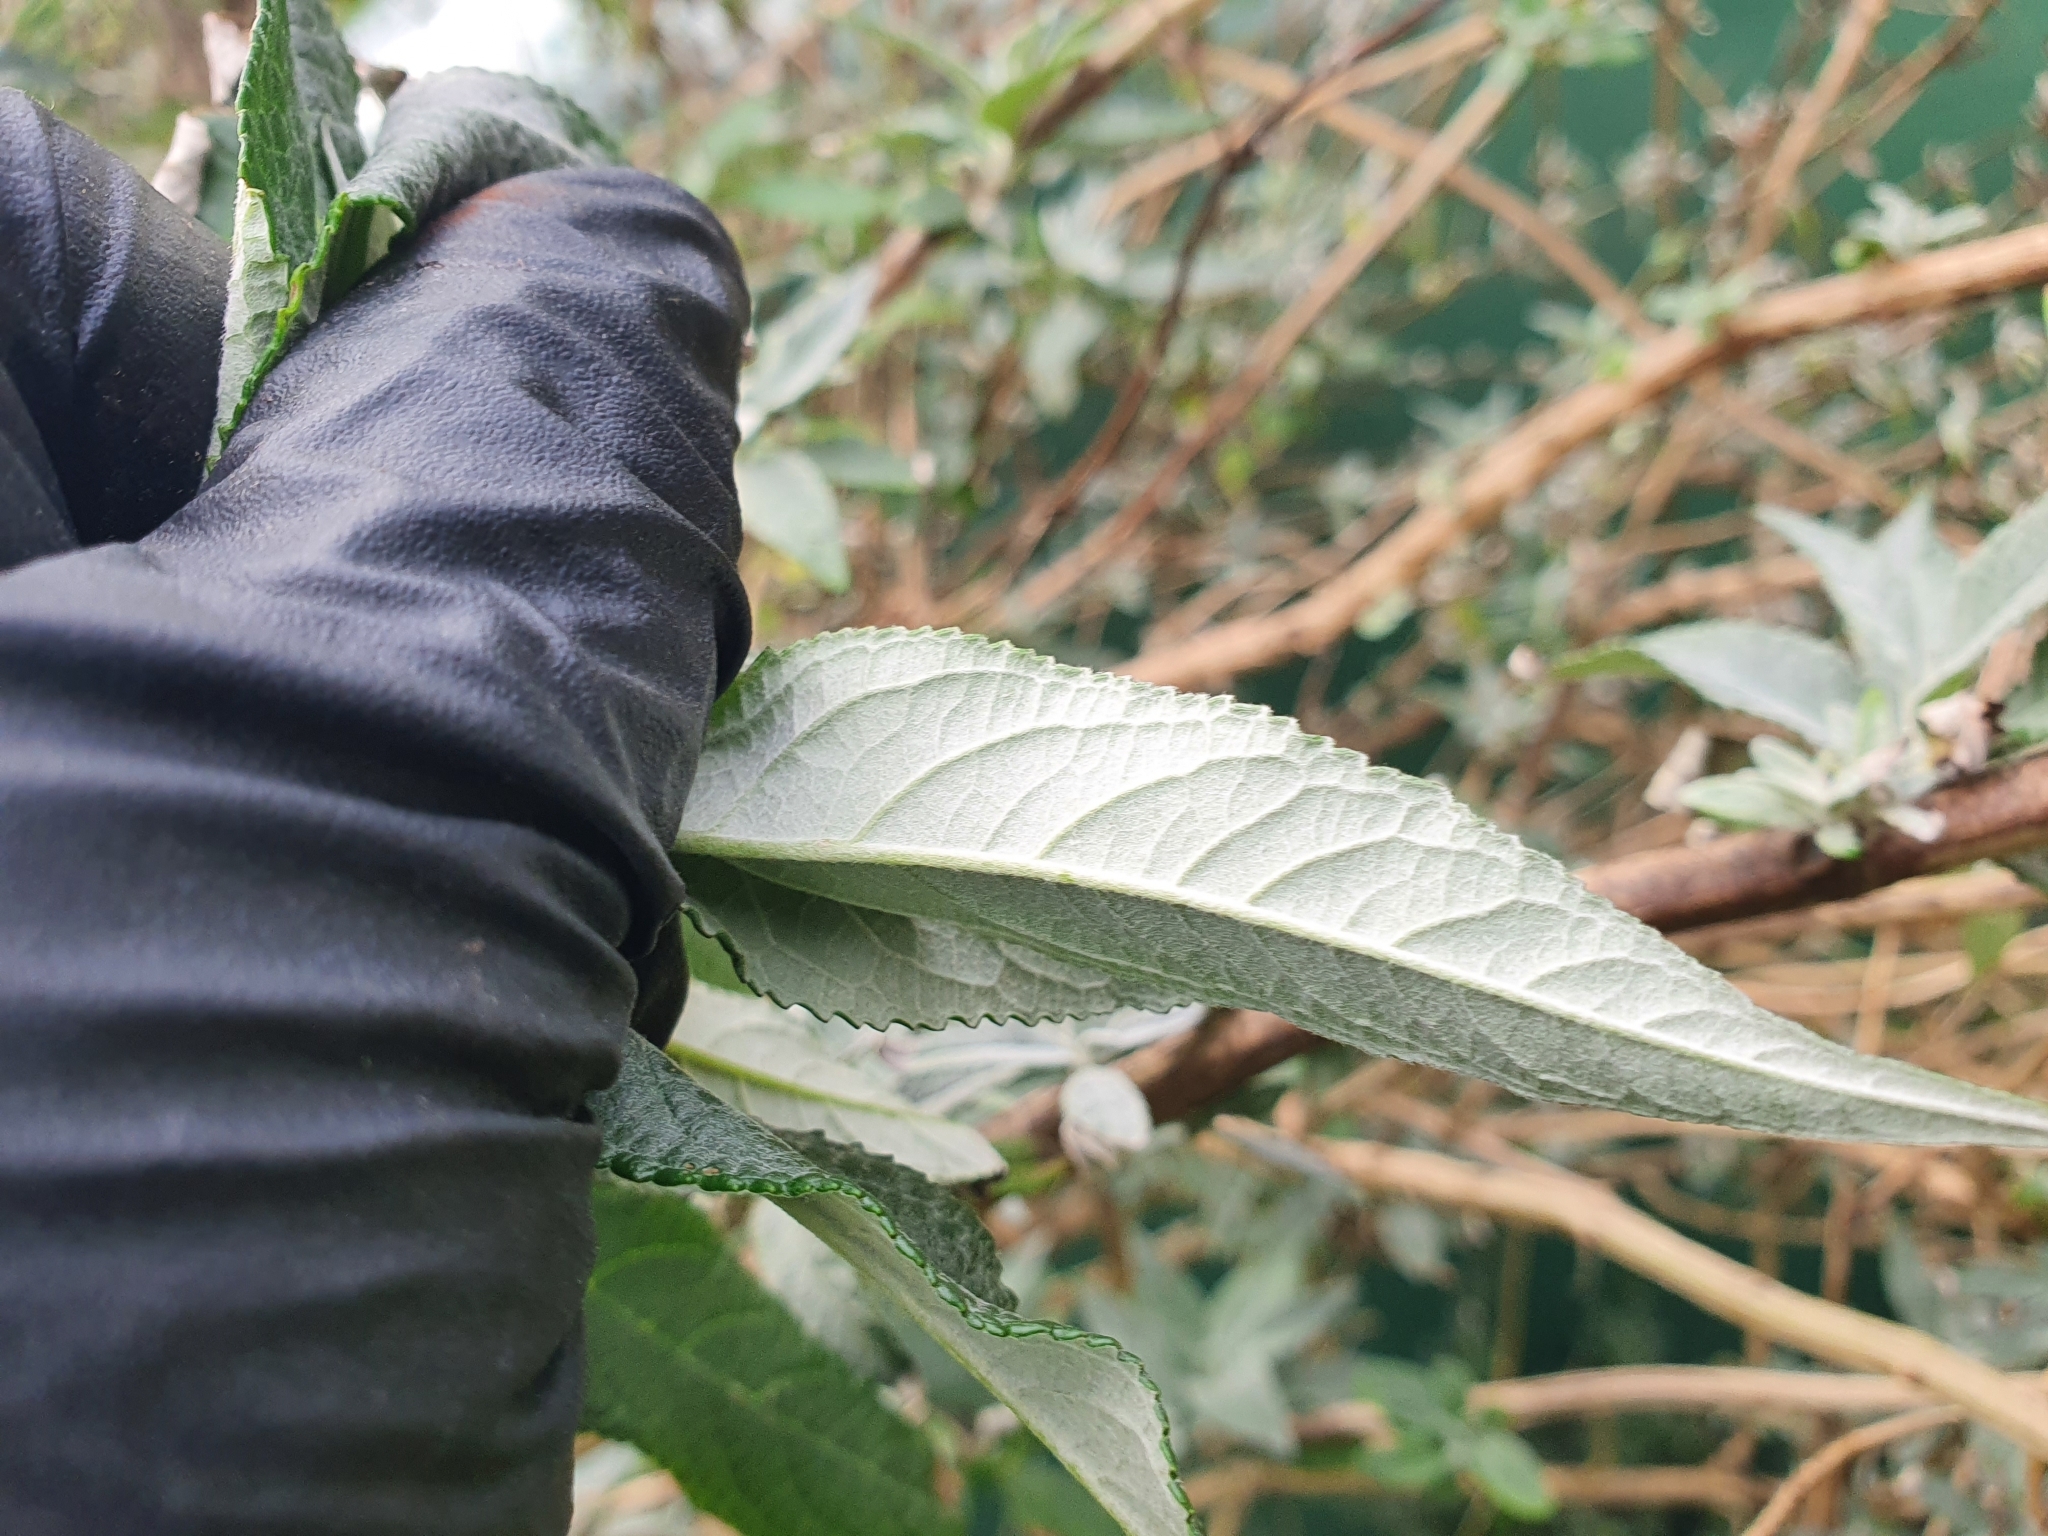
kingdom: Plantae
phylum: Tracheophyta
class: Magnoliopsida
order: Lamiales
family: Scrophulariaceae
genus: Buddleja
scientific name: Buddleja davidii
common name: Butterfly-bush
